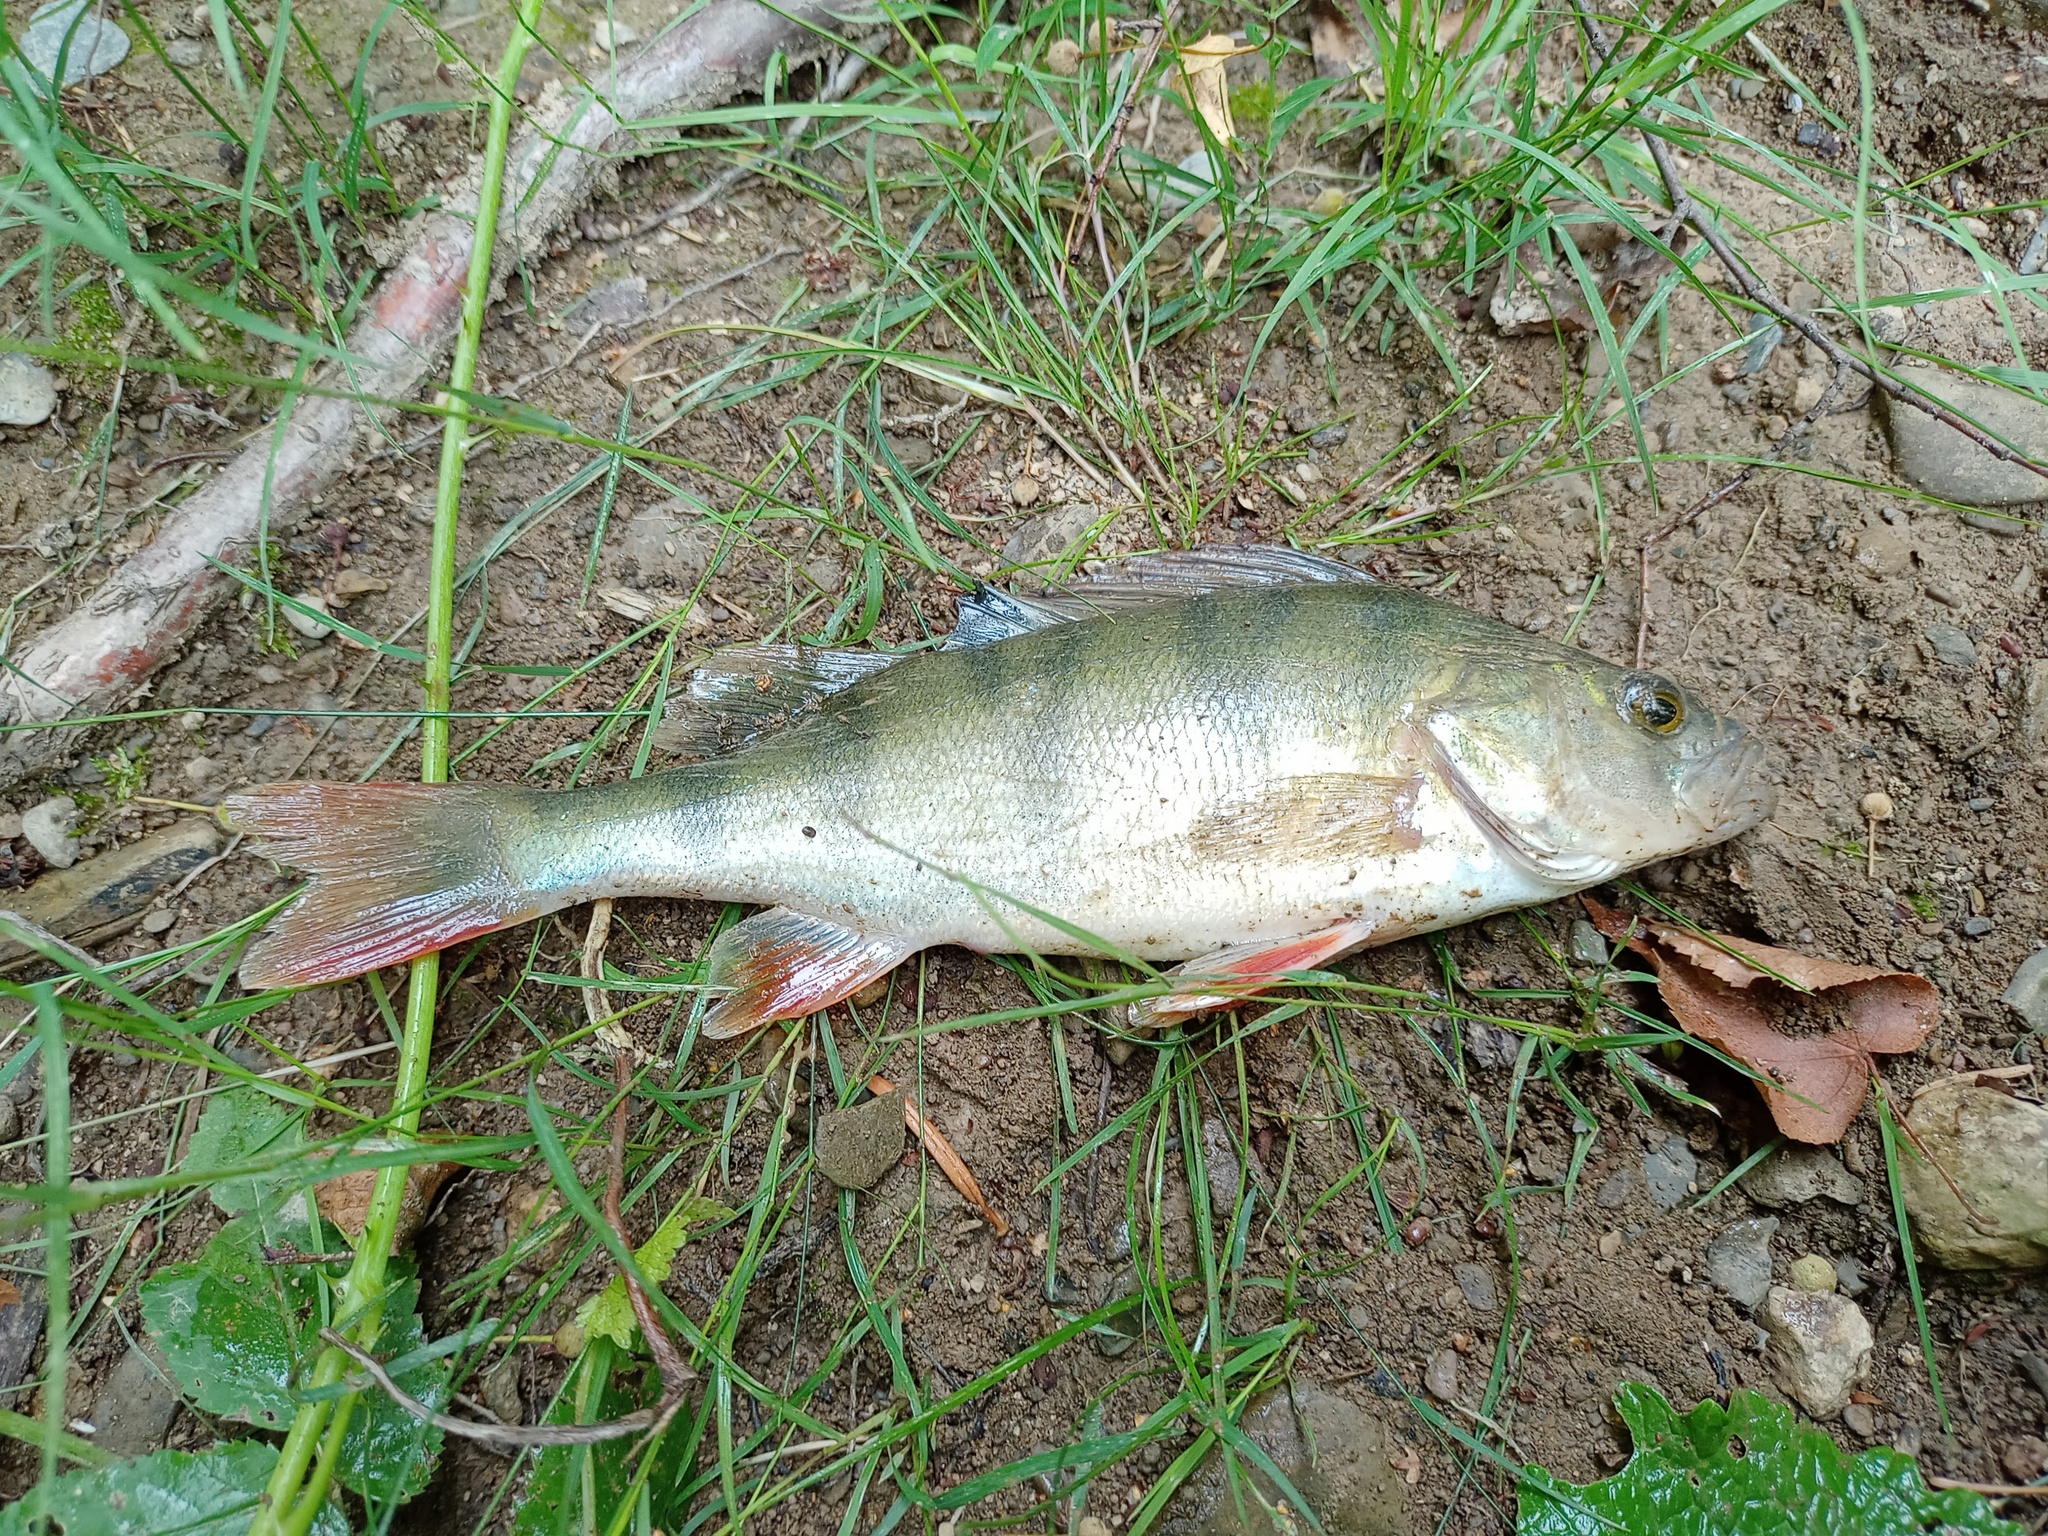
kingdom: Animalia
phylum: Chordata
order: Perciformes
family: Percidae
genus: Perca
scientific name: Perca fluviatilis
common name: Perch
